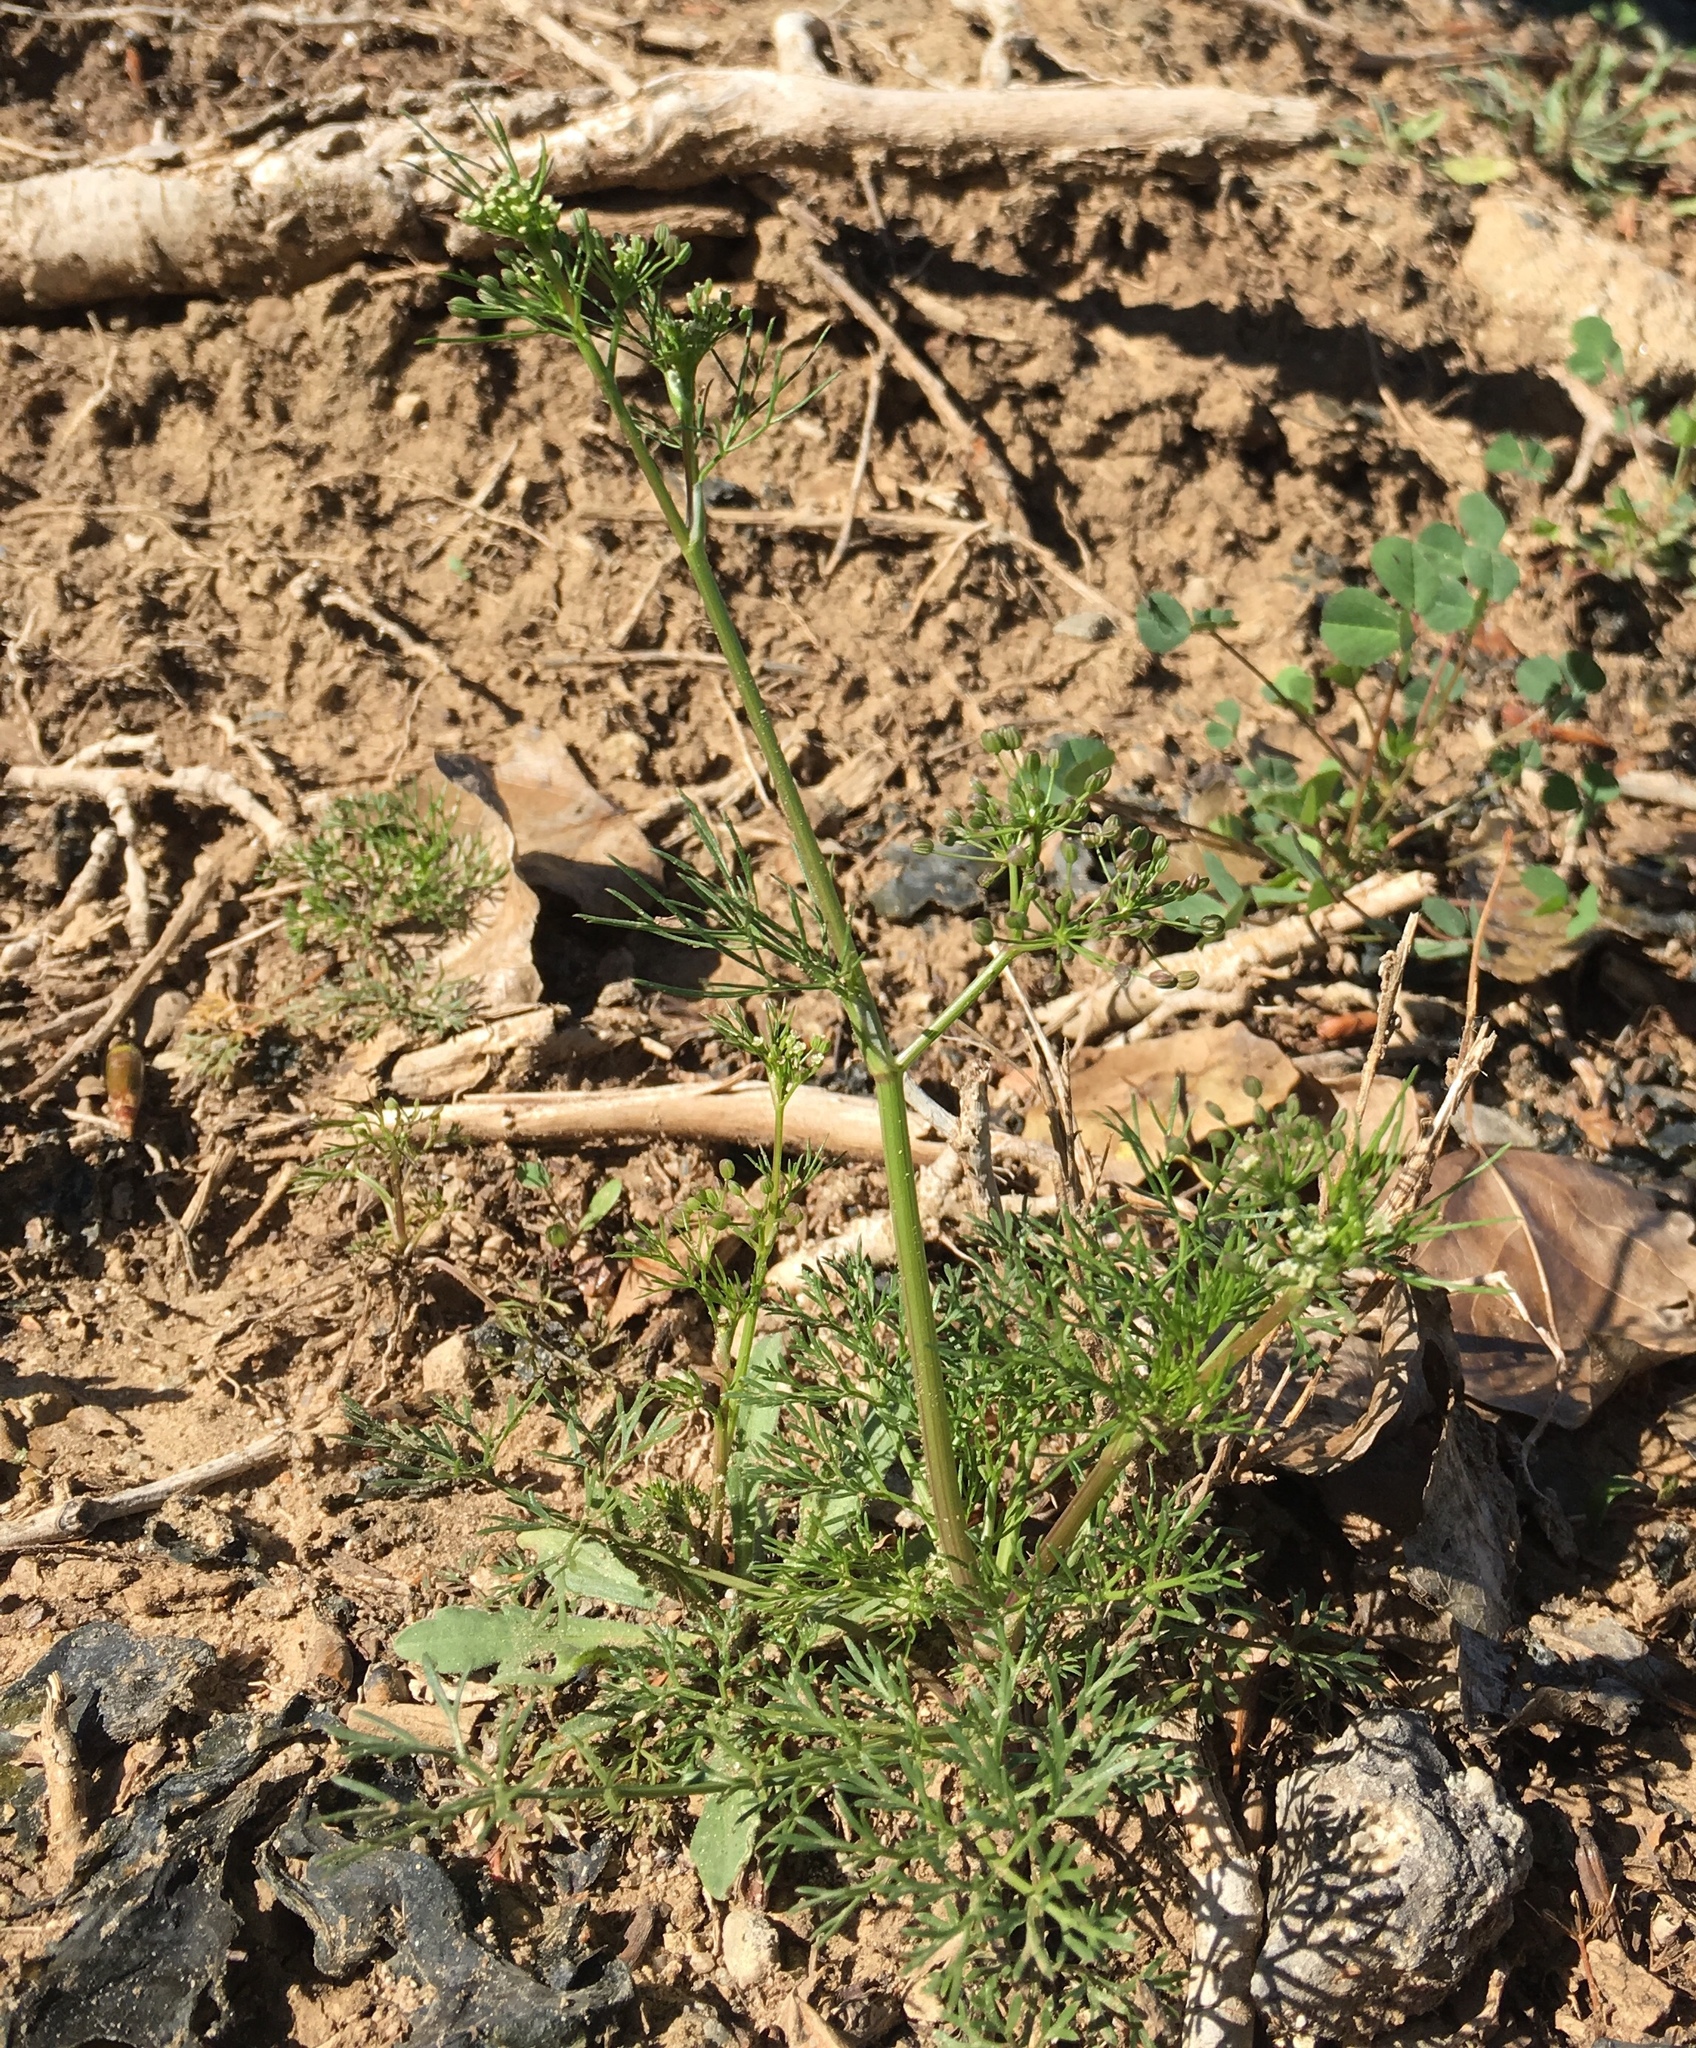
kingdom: Plantae
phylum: Tracheophyta
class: Magnoliopsida
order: Apiales
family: Apiaceae
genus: Cyclospermum
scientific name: Cyclospermum leptophyllum
